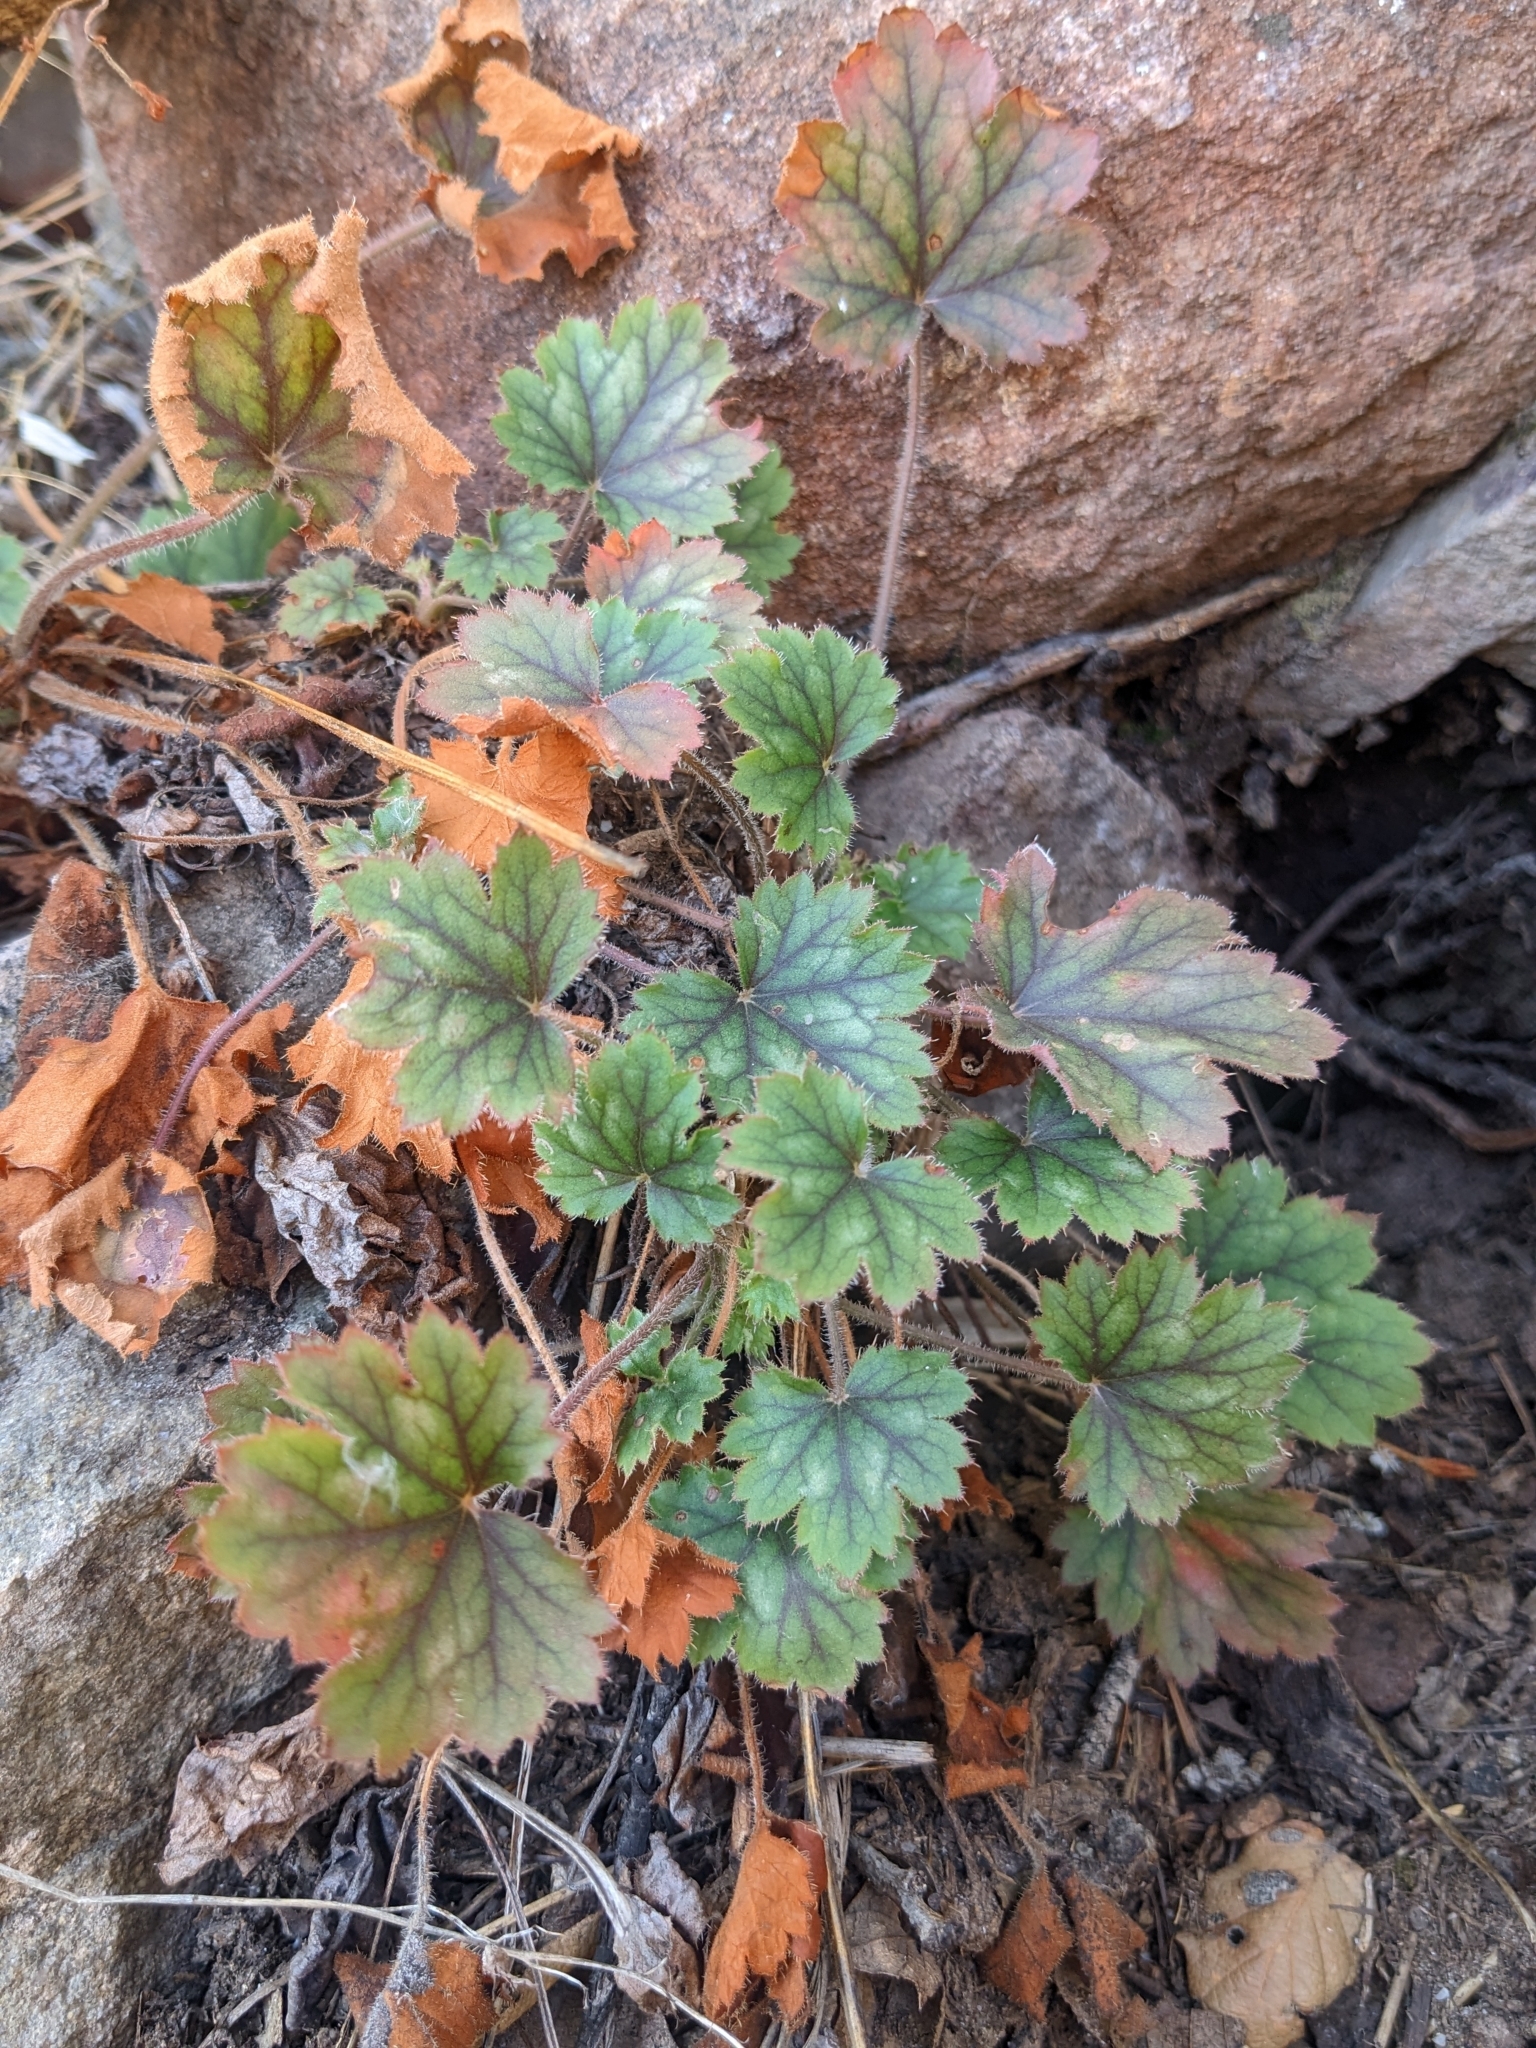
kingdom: Plantae
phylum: Tracheophyta
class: Magnoliopsida
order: Saxifragales
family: Saxifragaceae
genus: Heuchera
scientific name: Heuchera sanguinea
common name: Coralbells
